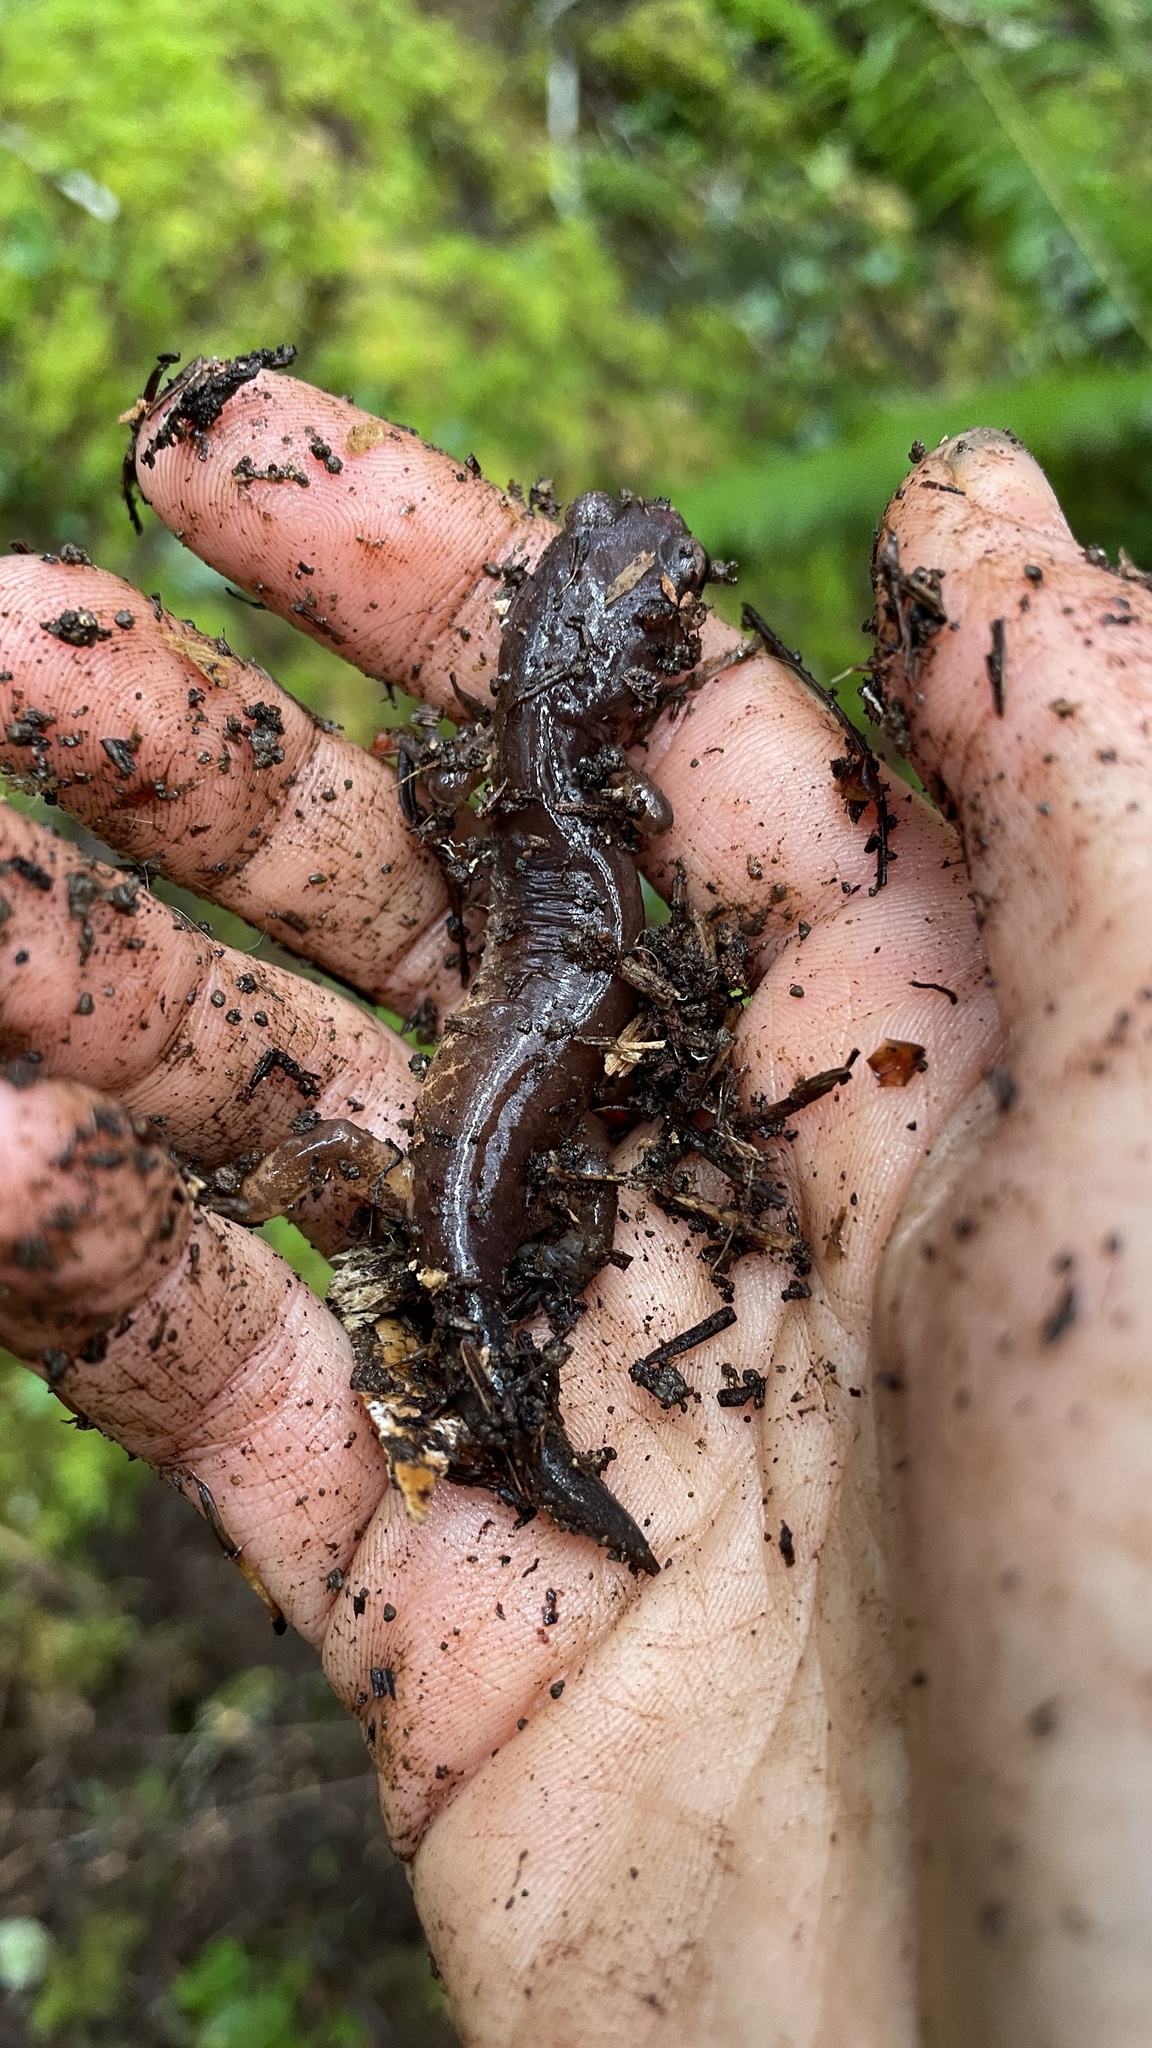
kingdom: Animalia
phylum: Chordata
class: Amphibia
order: Caudata
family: Plethodontidae
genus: Ensatina
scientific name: Ensatina eschscholtzii
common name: Ensatina
